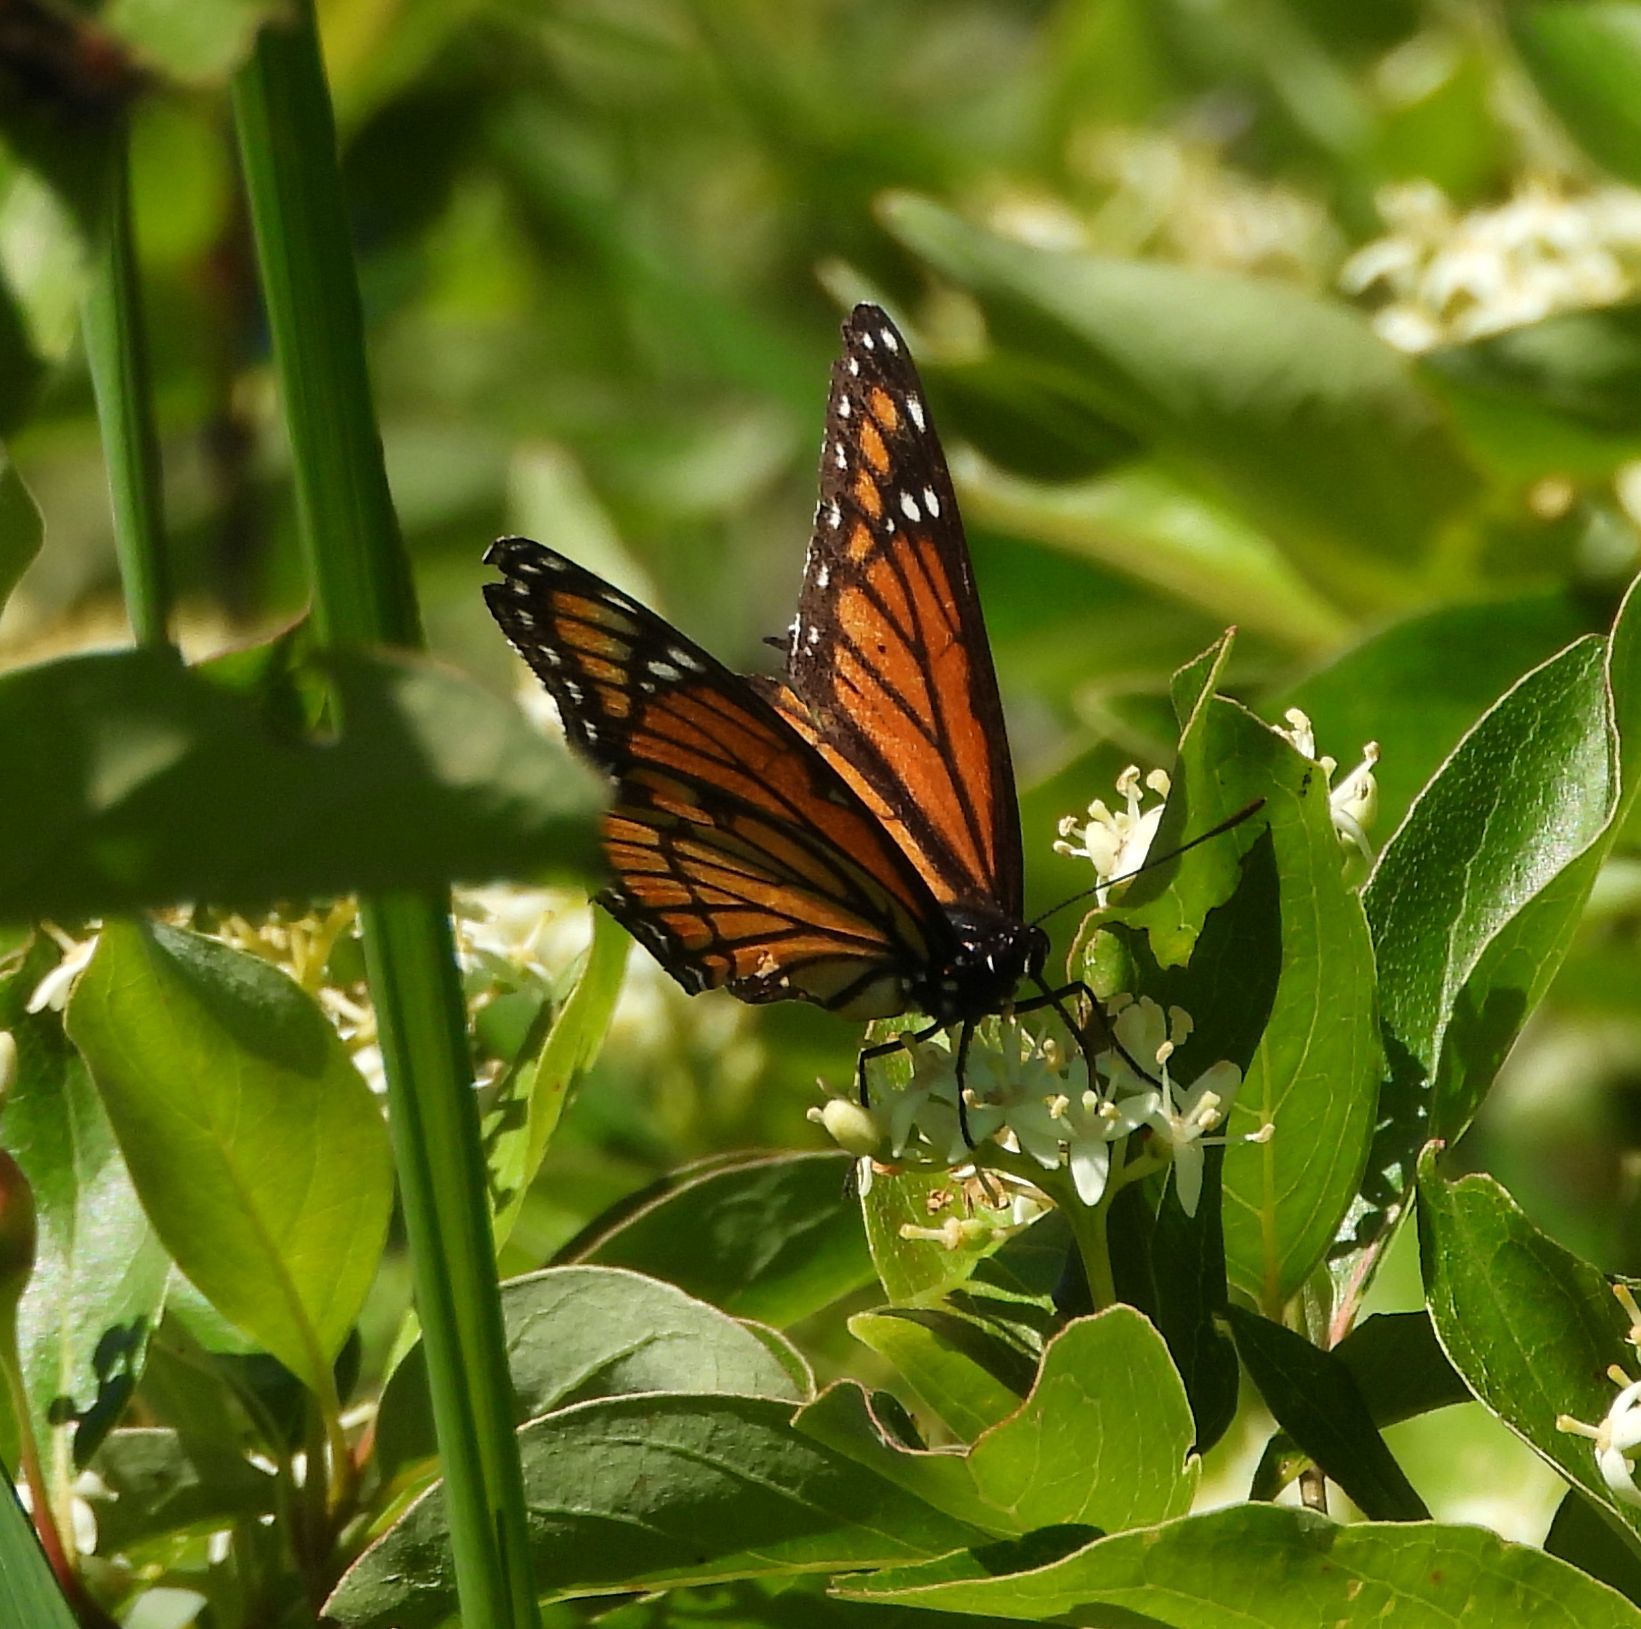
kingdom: Animalia
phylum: Arthropoda
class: Insecta
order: Lepidoptera
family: Nymphalidae
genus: Limenitis
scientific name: Limenitis archippus
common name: Viceroy
